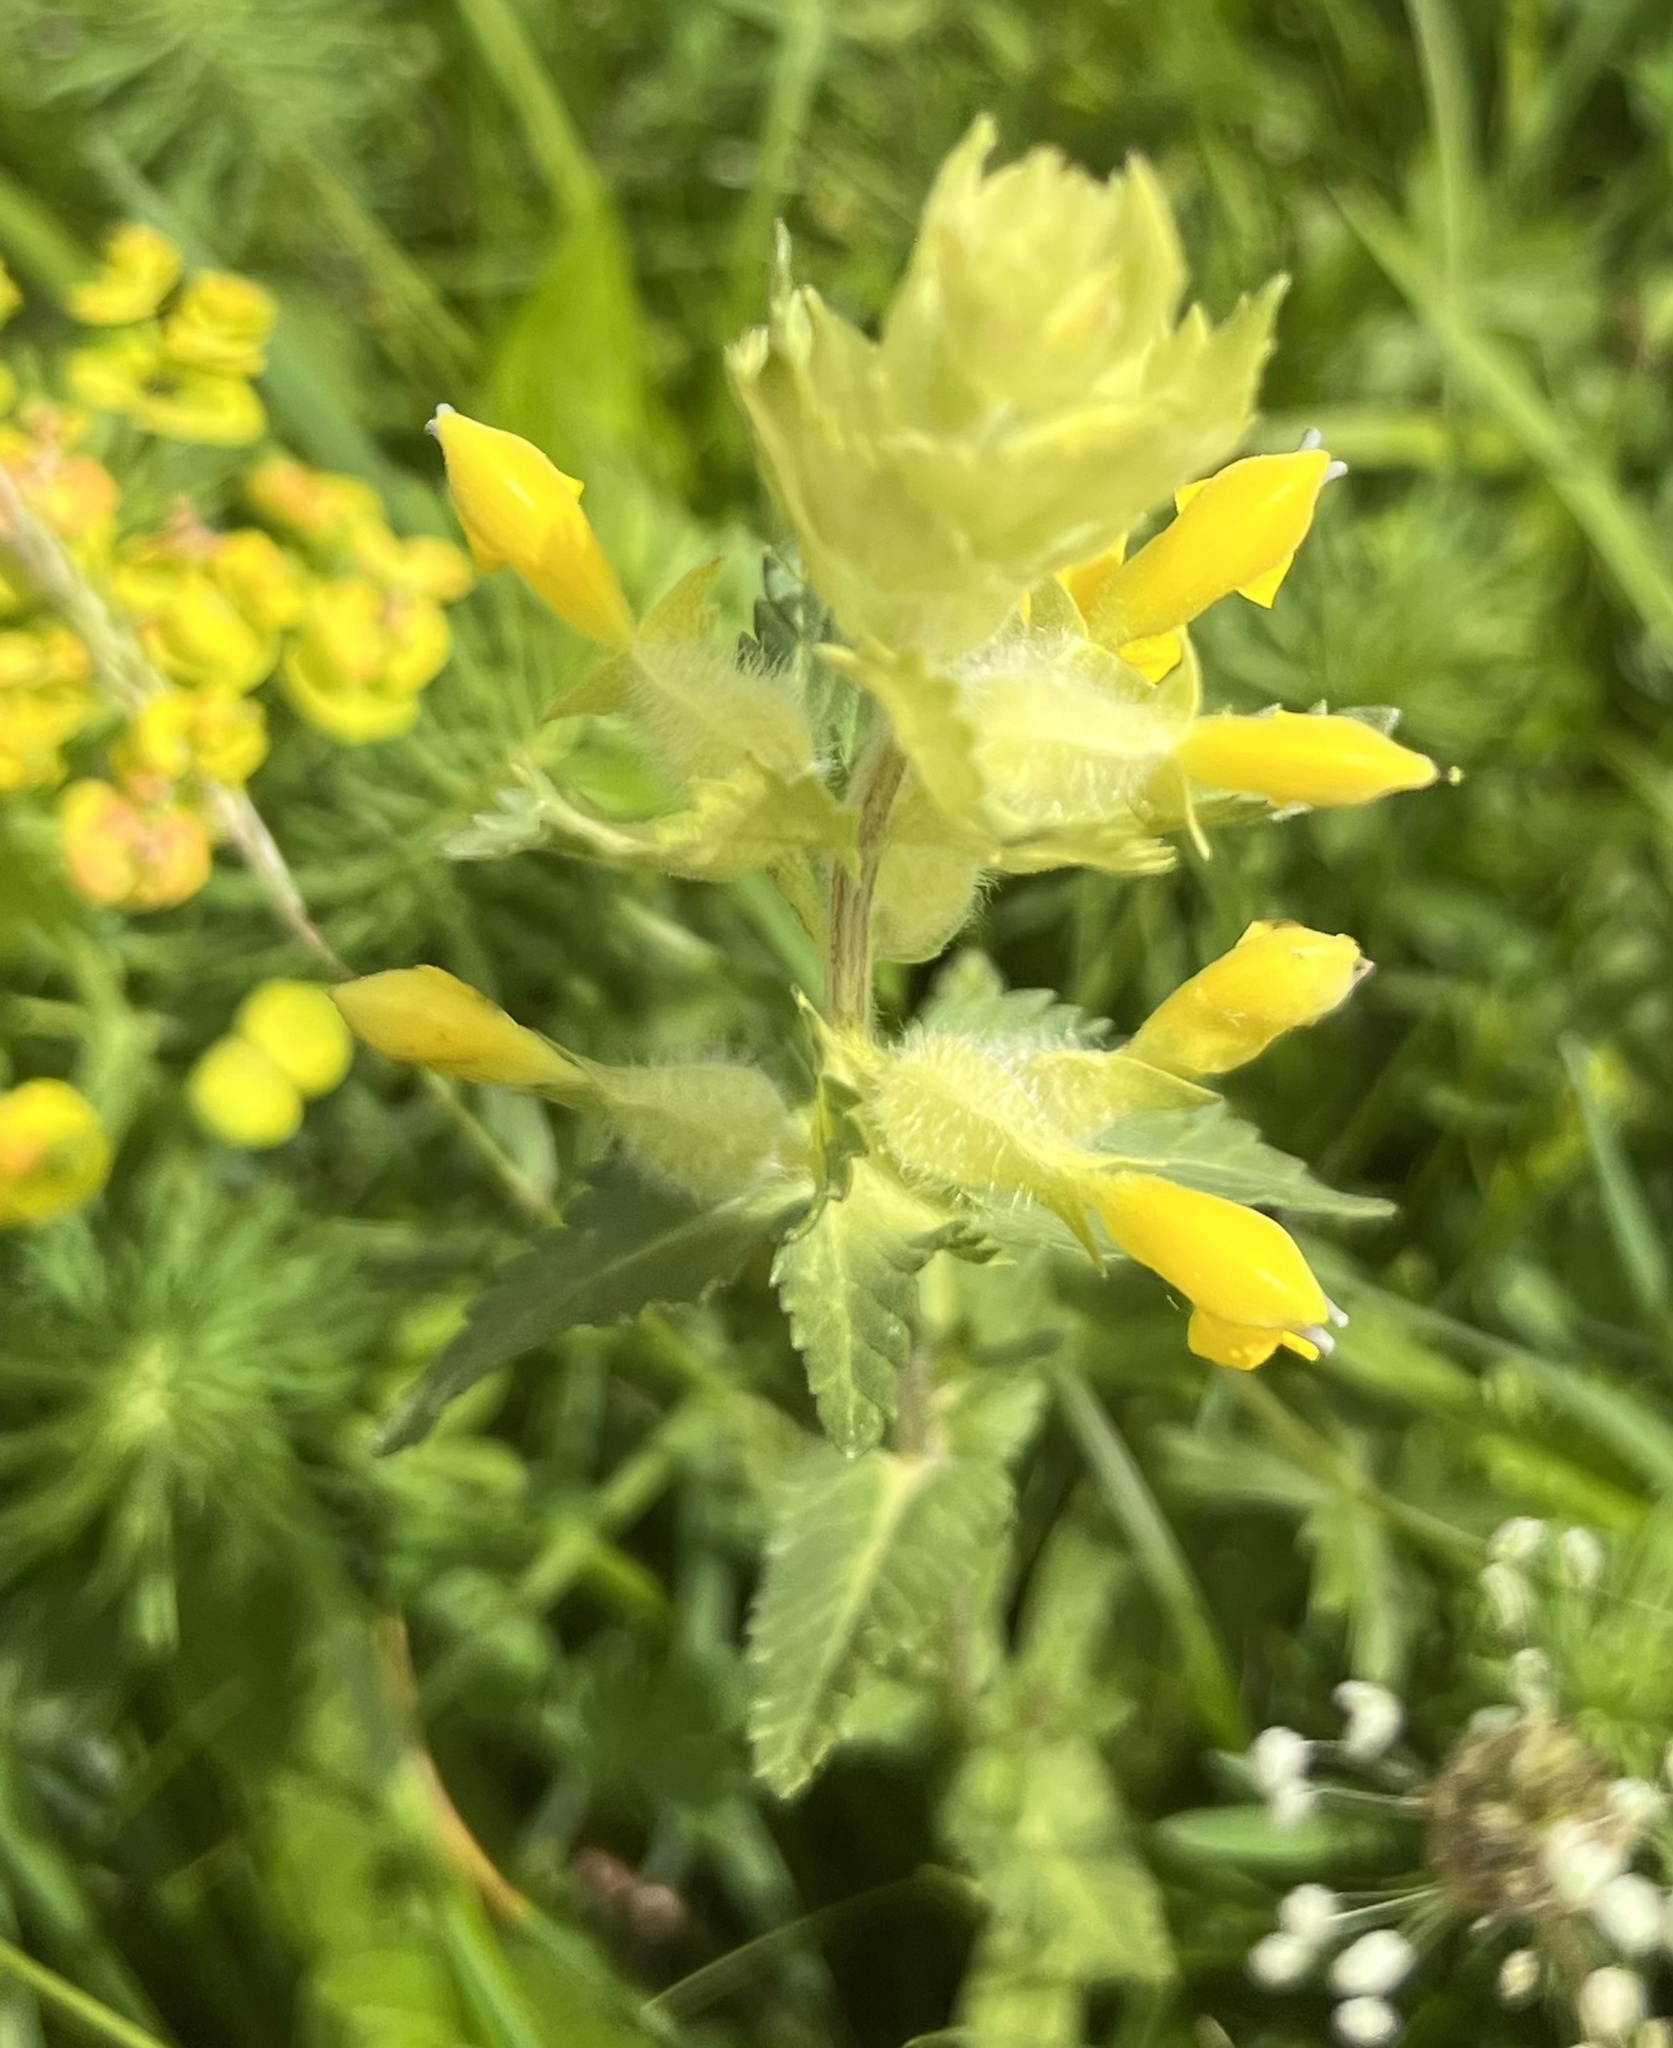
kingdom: Plantae
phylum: Tracheophyta
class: Magnoliopsida
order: Lamiales
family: Orobanchaceae
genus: Rhinanthus
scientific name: Rhinanthus alectorolophus
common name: Greater yellow-rattle
